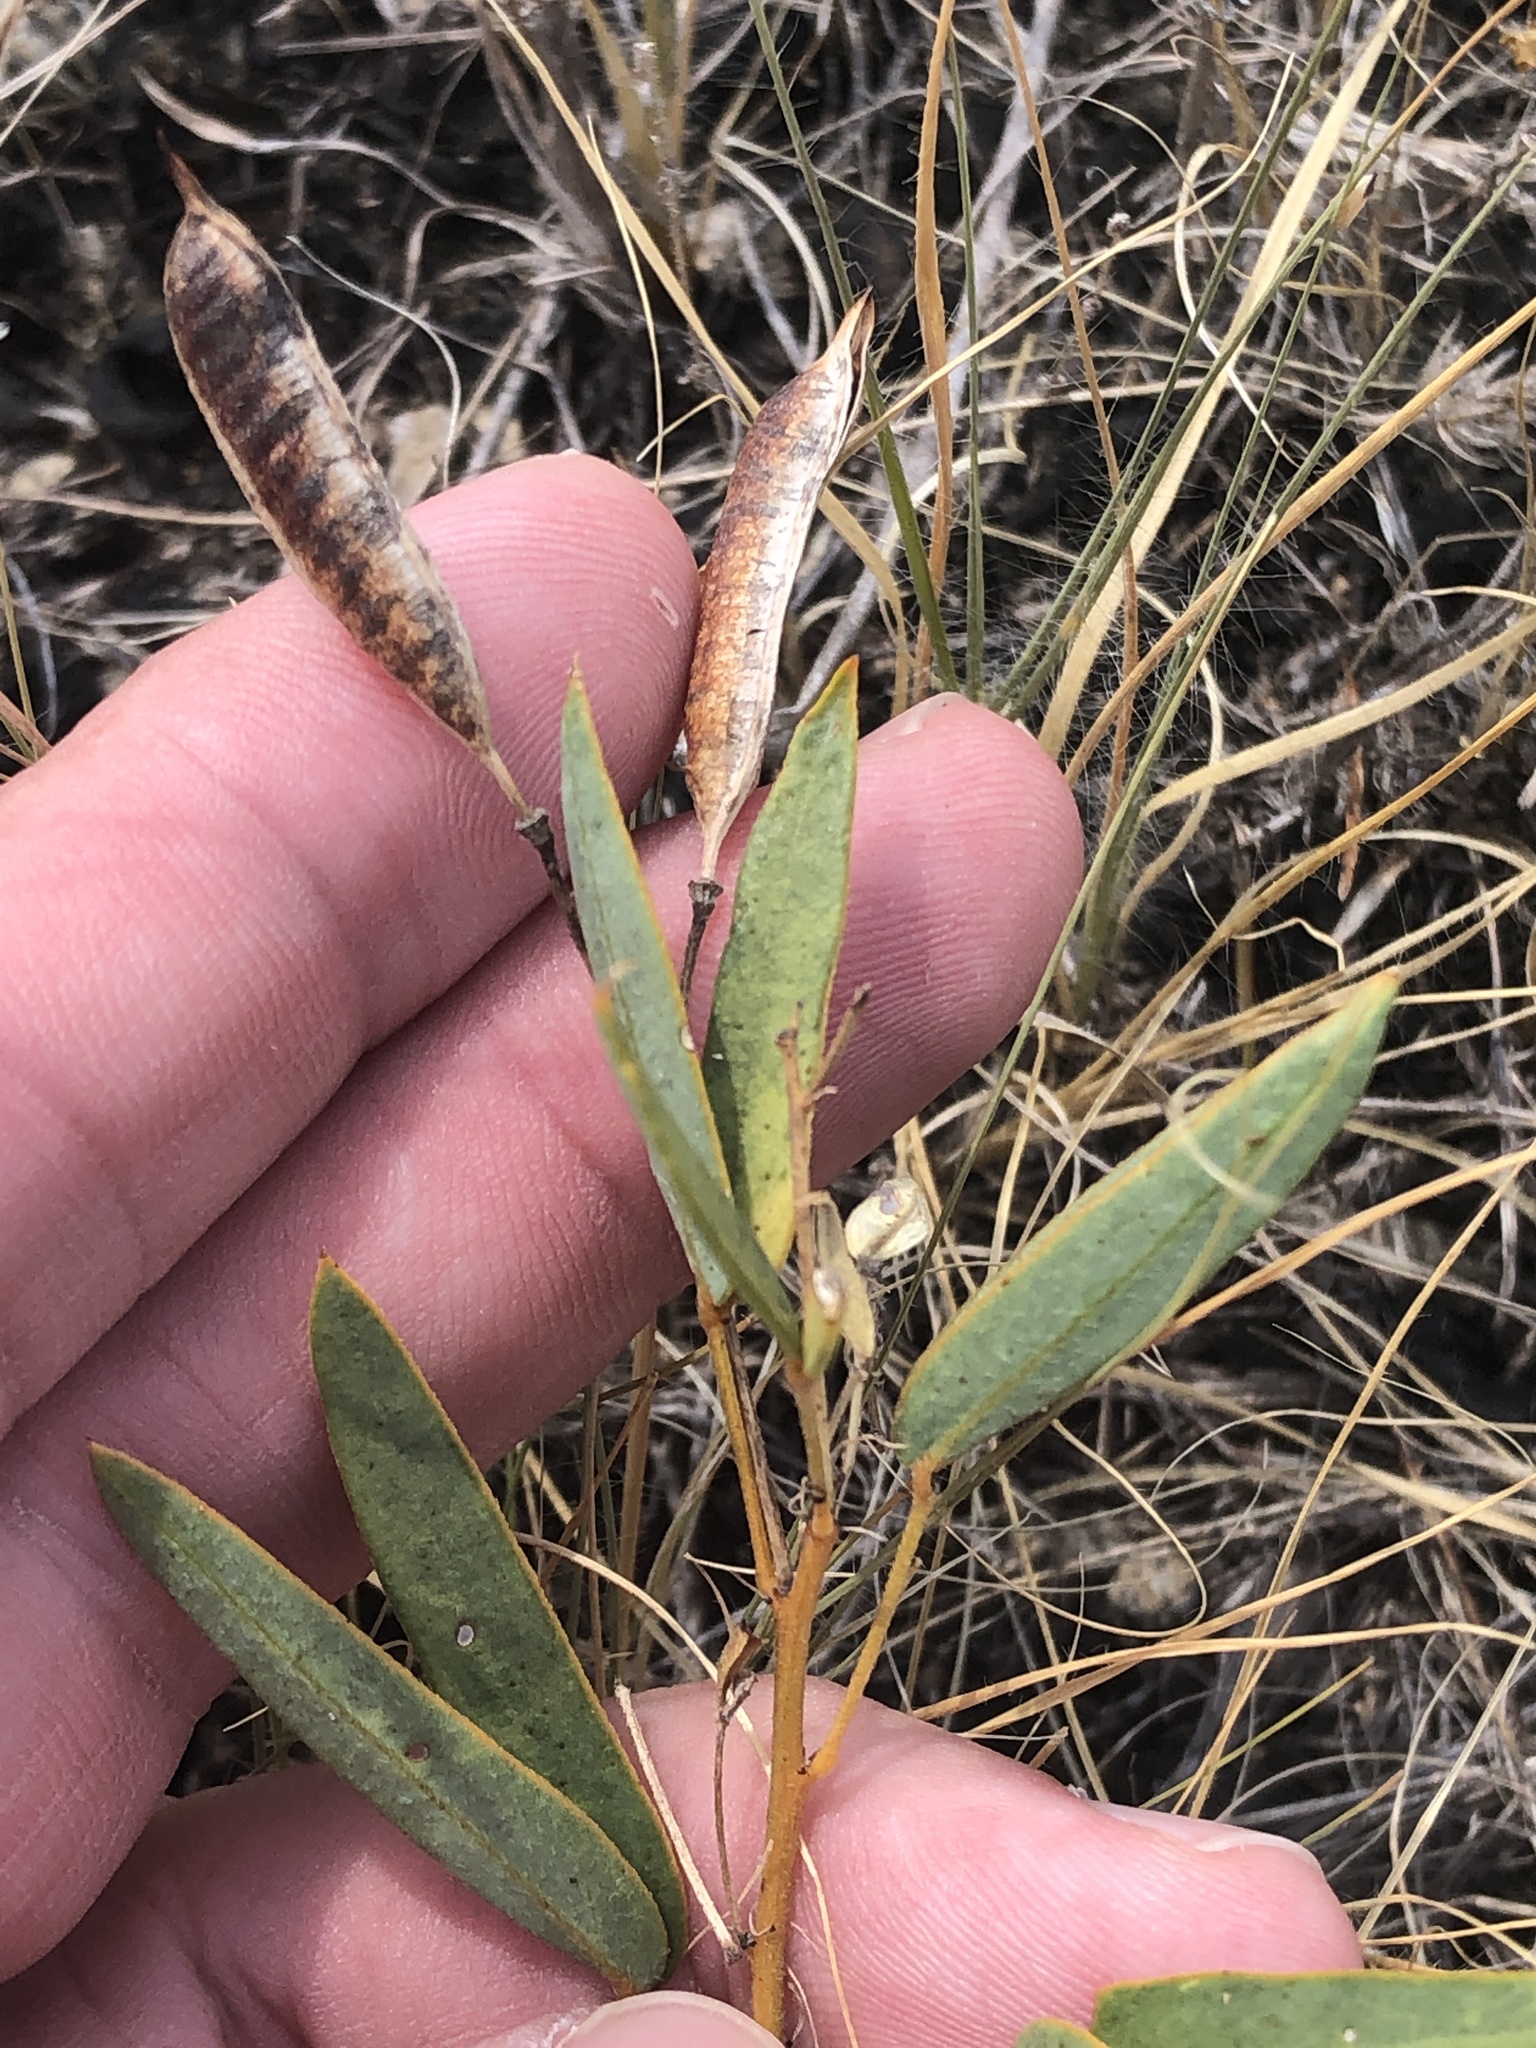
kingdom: Plantae
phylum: Tracheophyta
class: Magnoliopsida
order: Fabales
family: Fabaceae
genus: Senna
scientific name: Senna roemeriana
